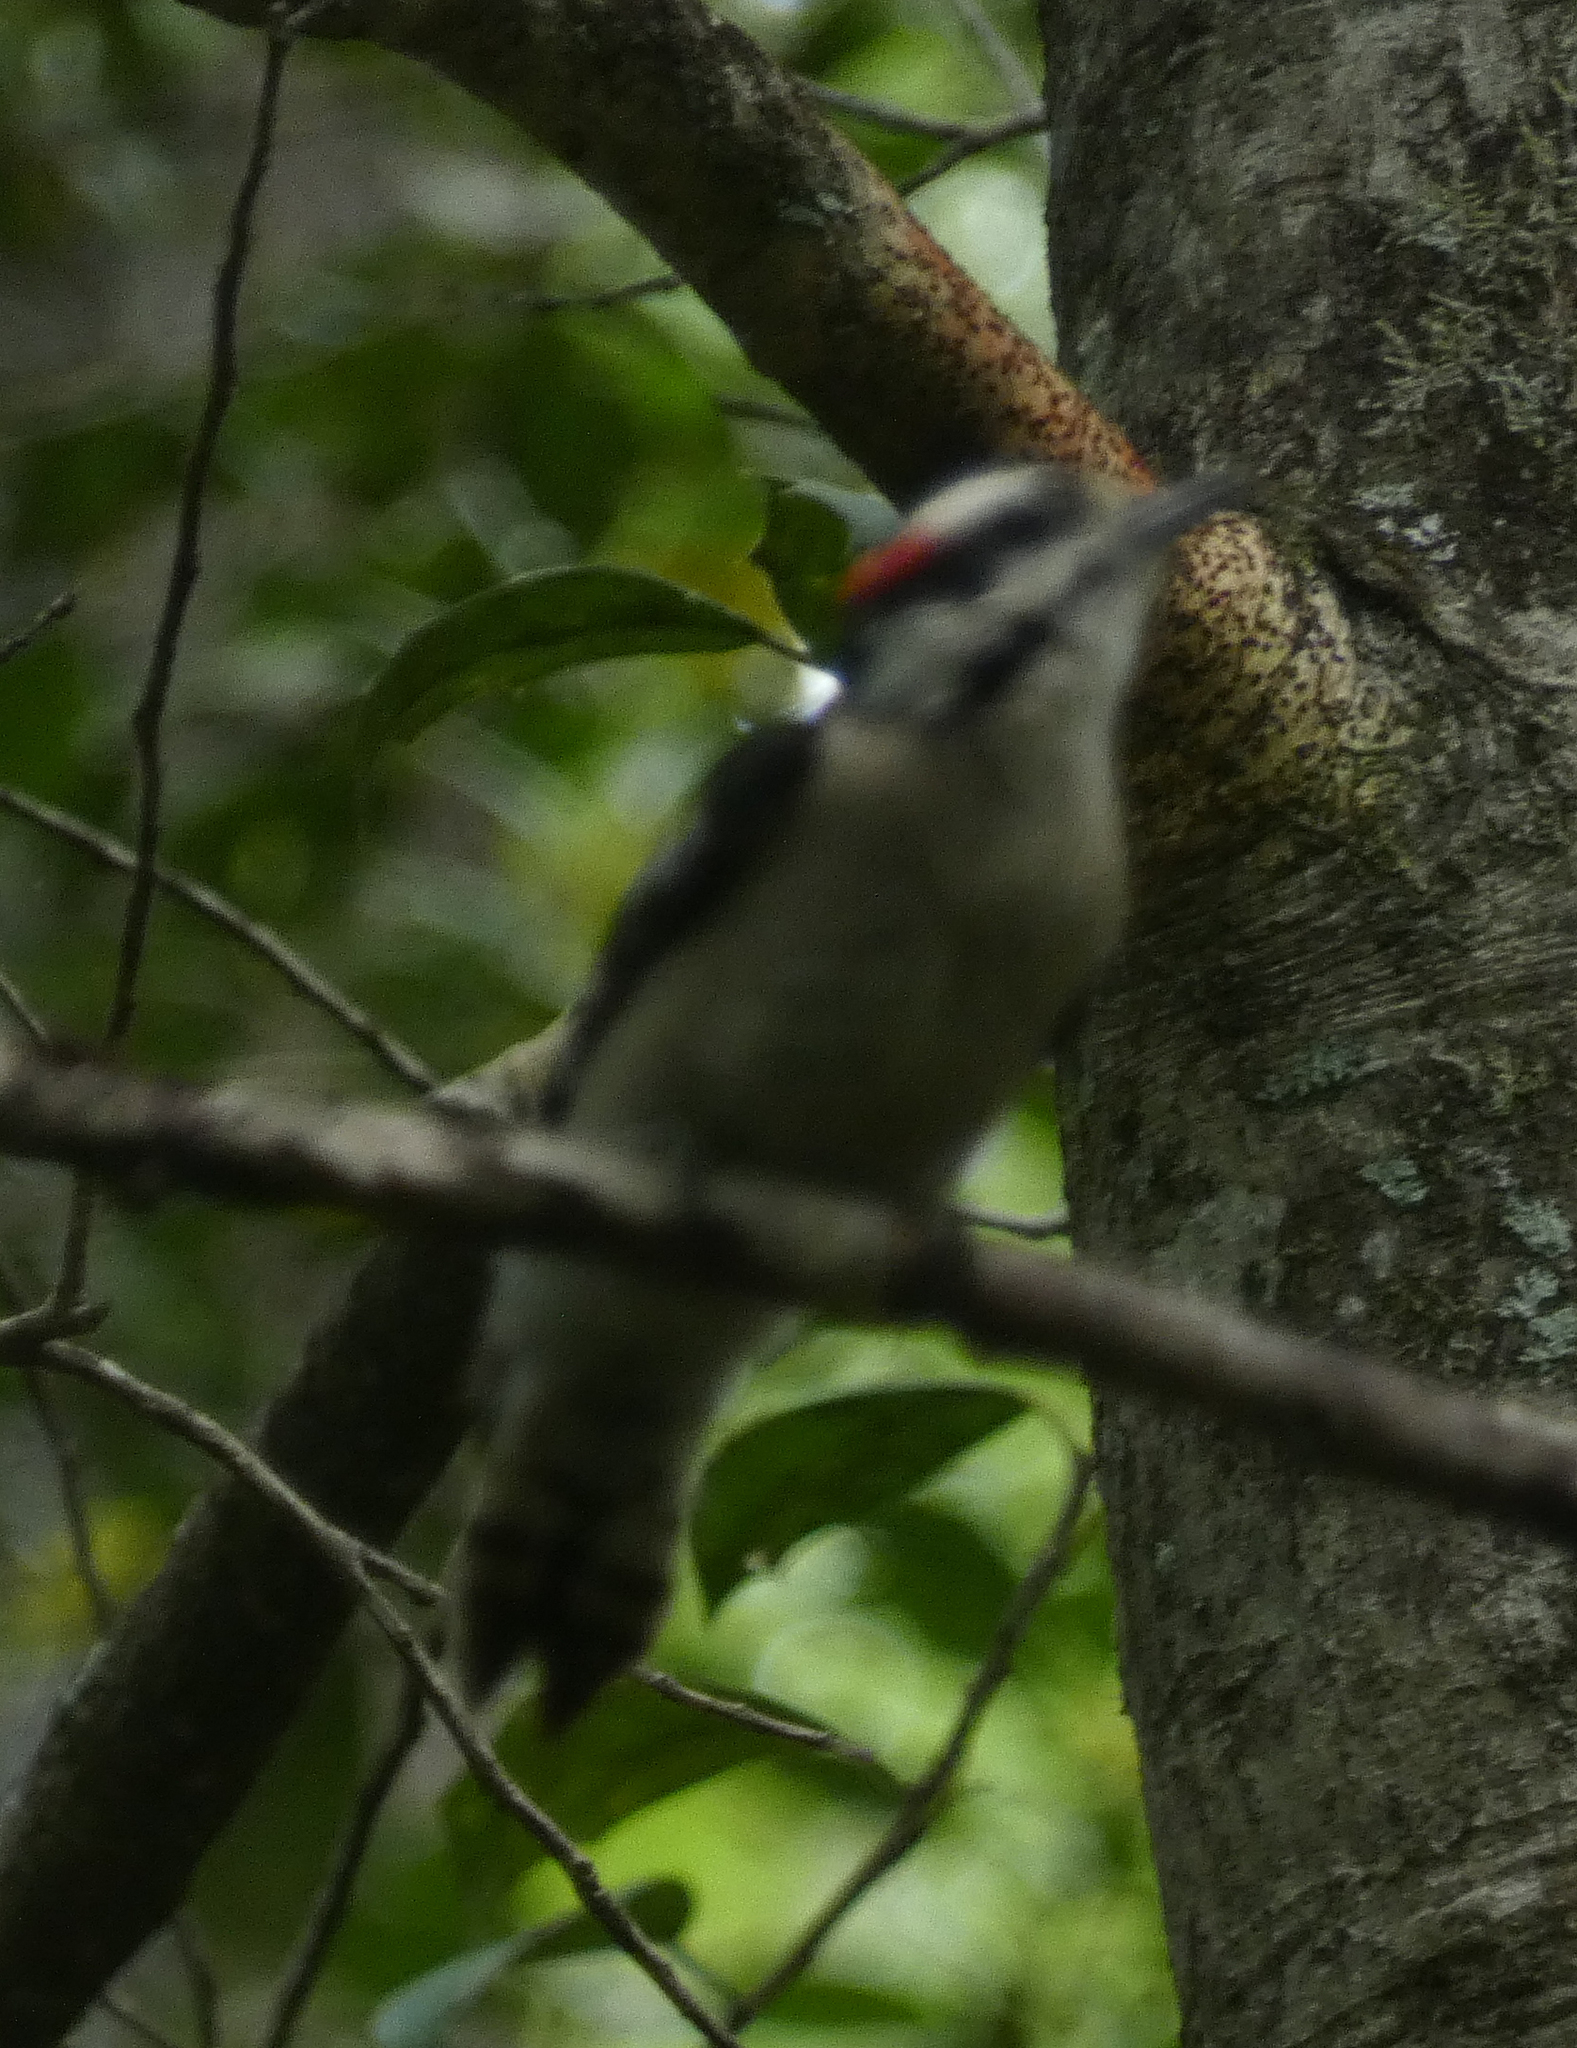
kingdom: Animalia
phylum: Chordata
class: Aves
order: Piciformes
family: Picidae
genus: Dryobates
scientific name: Dryobates pubescens
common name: Downy woodpecker
